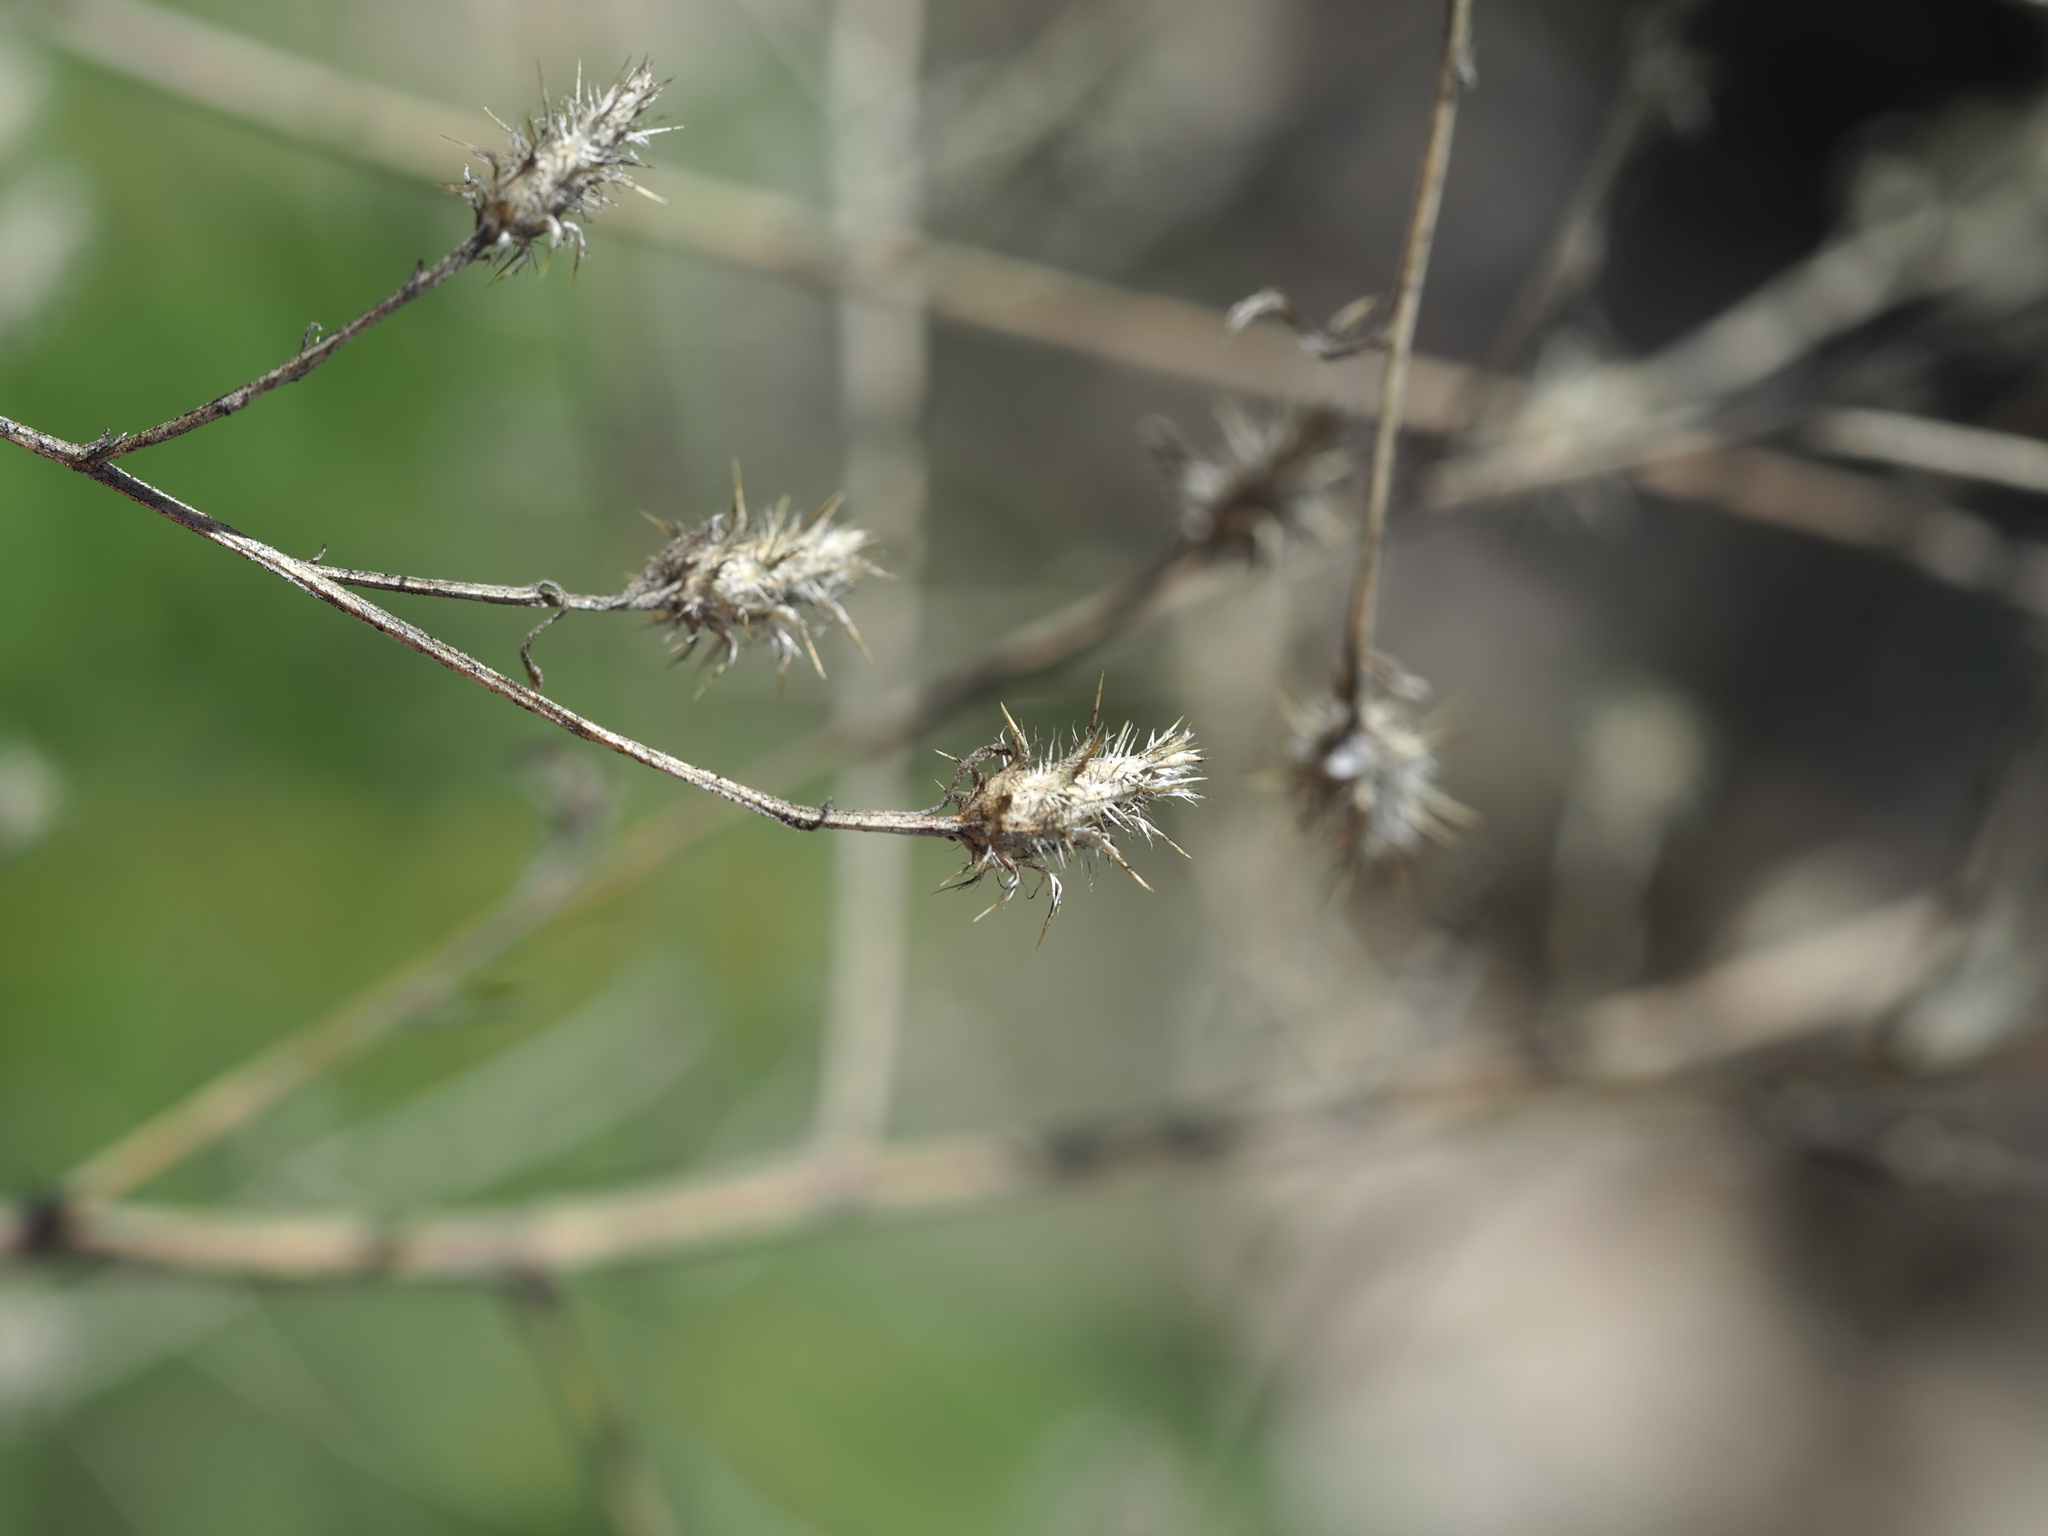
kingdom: Plantae
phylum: Tracheophyta
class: Magnoliopsida
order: Asterales
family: Asteraceae
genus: Centaurea
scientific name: Centaurea diffusa
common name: Diffuse knapweed
